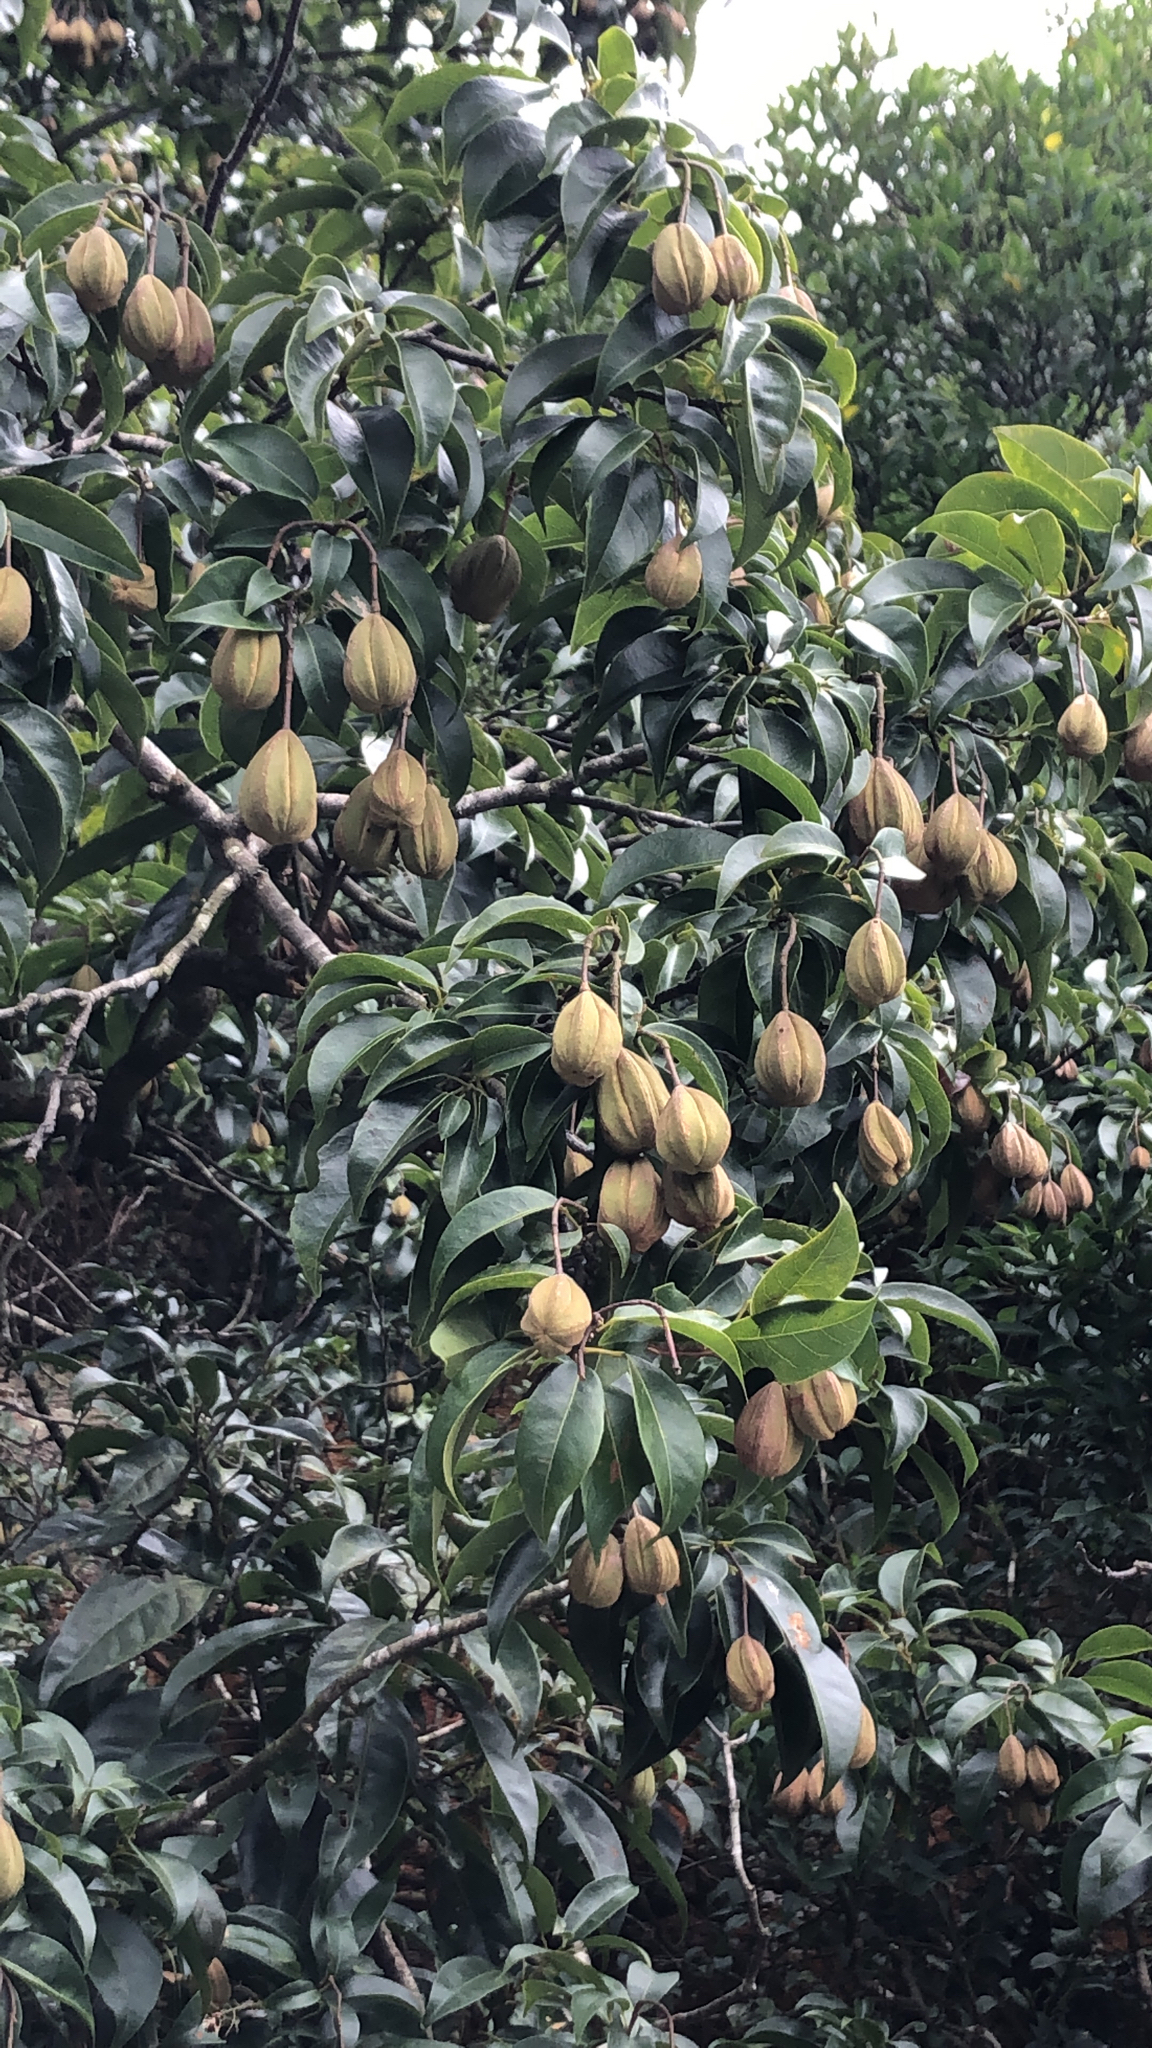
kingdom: Plantae
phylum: Tracheophyta
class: Magnoliopsida
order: Malvales
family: Malvaceae
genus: Reevesia
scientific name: Reevesia thyrsoidea
